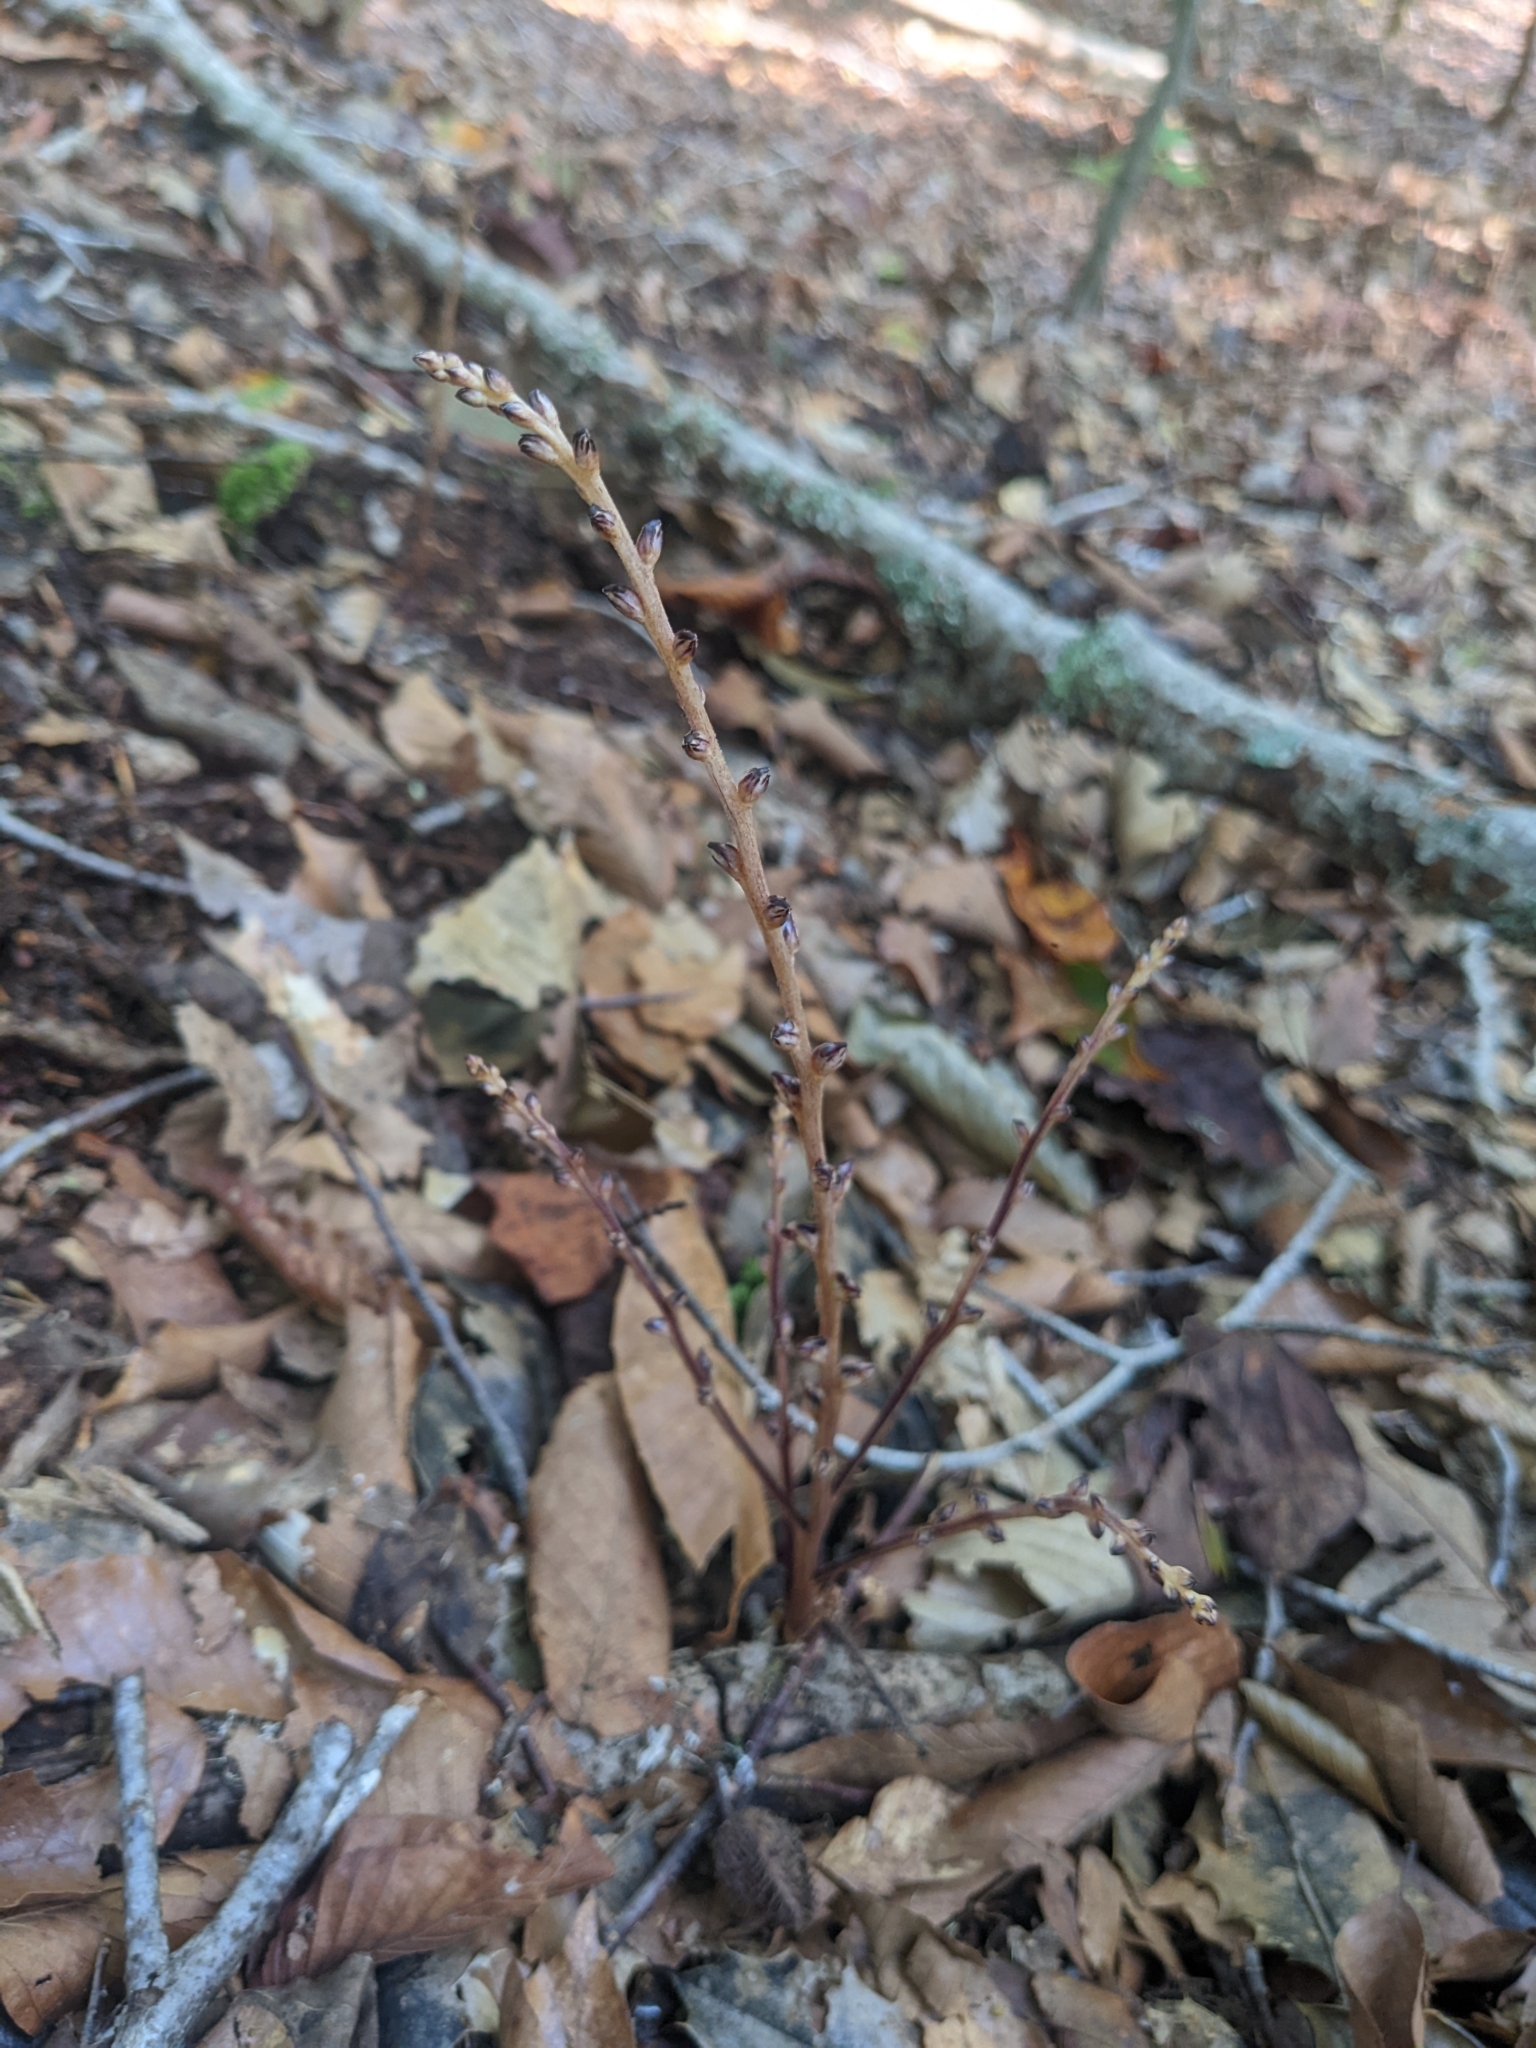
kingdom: Plantae
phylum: Tracheophyta
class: Magnoliopsida
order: Lamiales
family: Orobanchaceae
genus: Epifagus
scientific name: Epifagus virginiana
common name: Beechdrops
